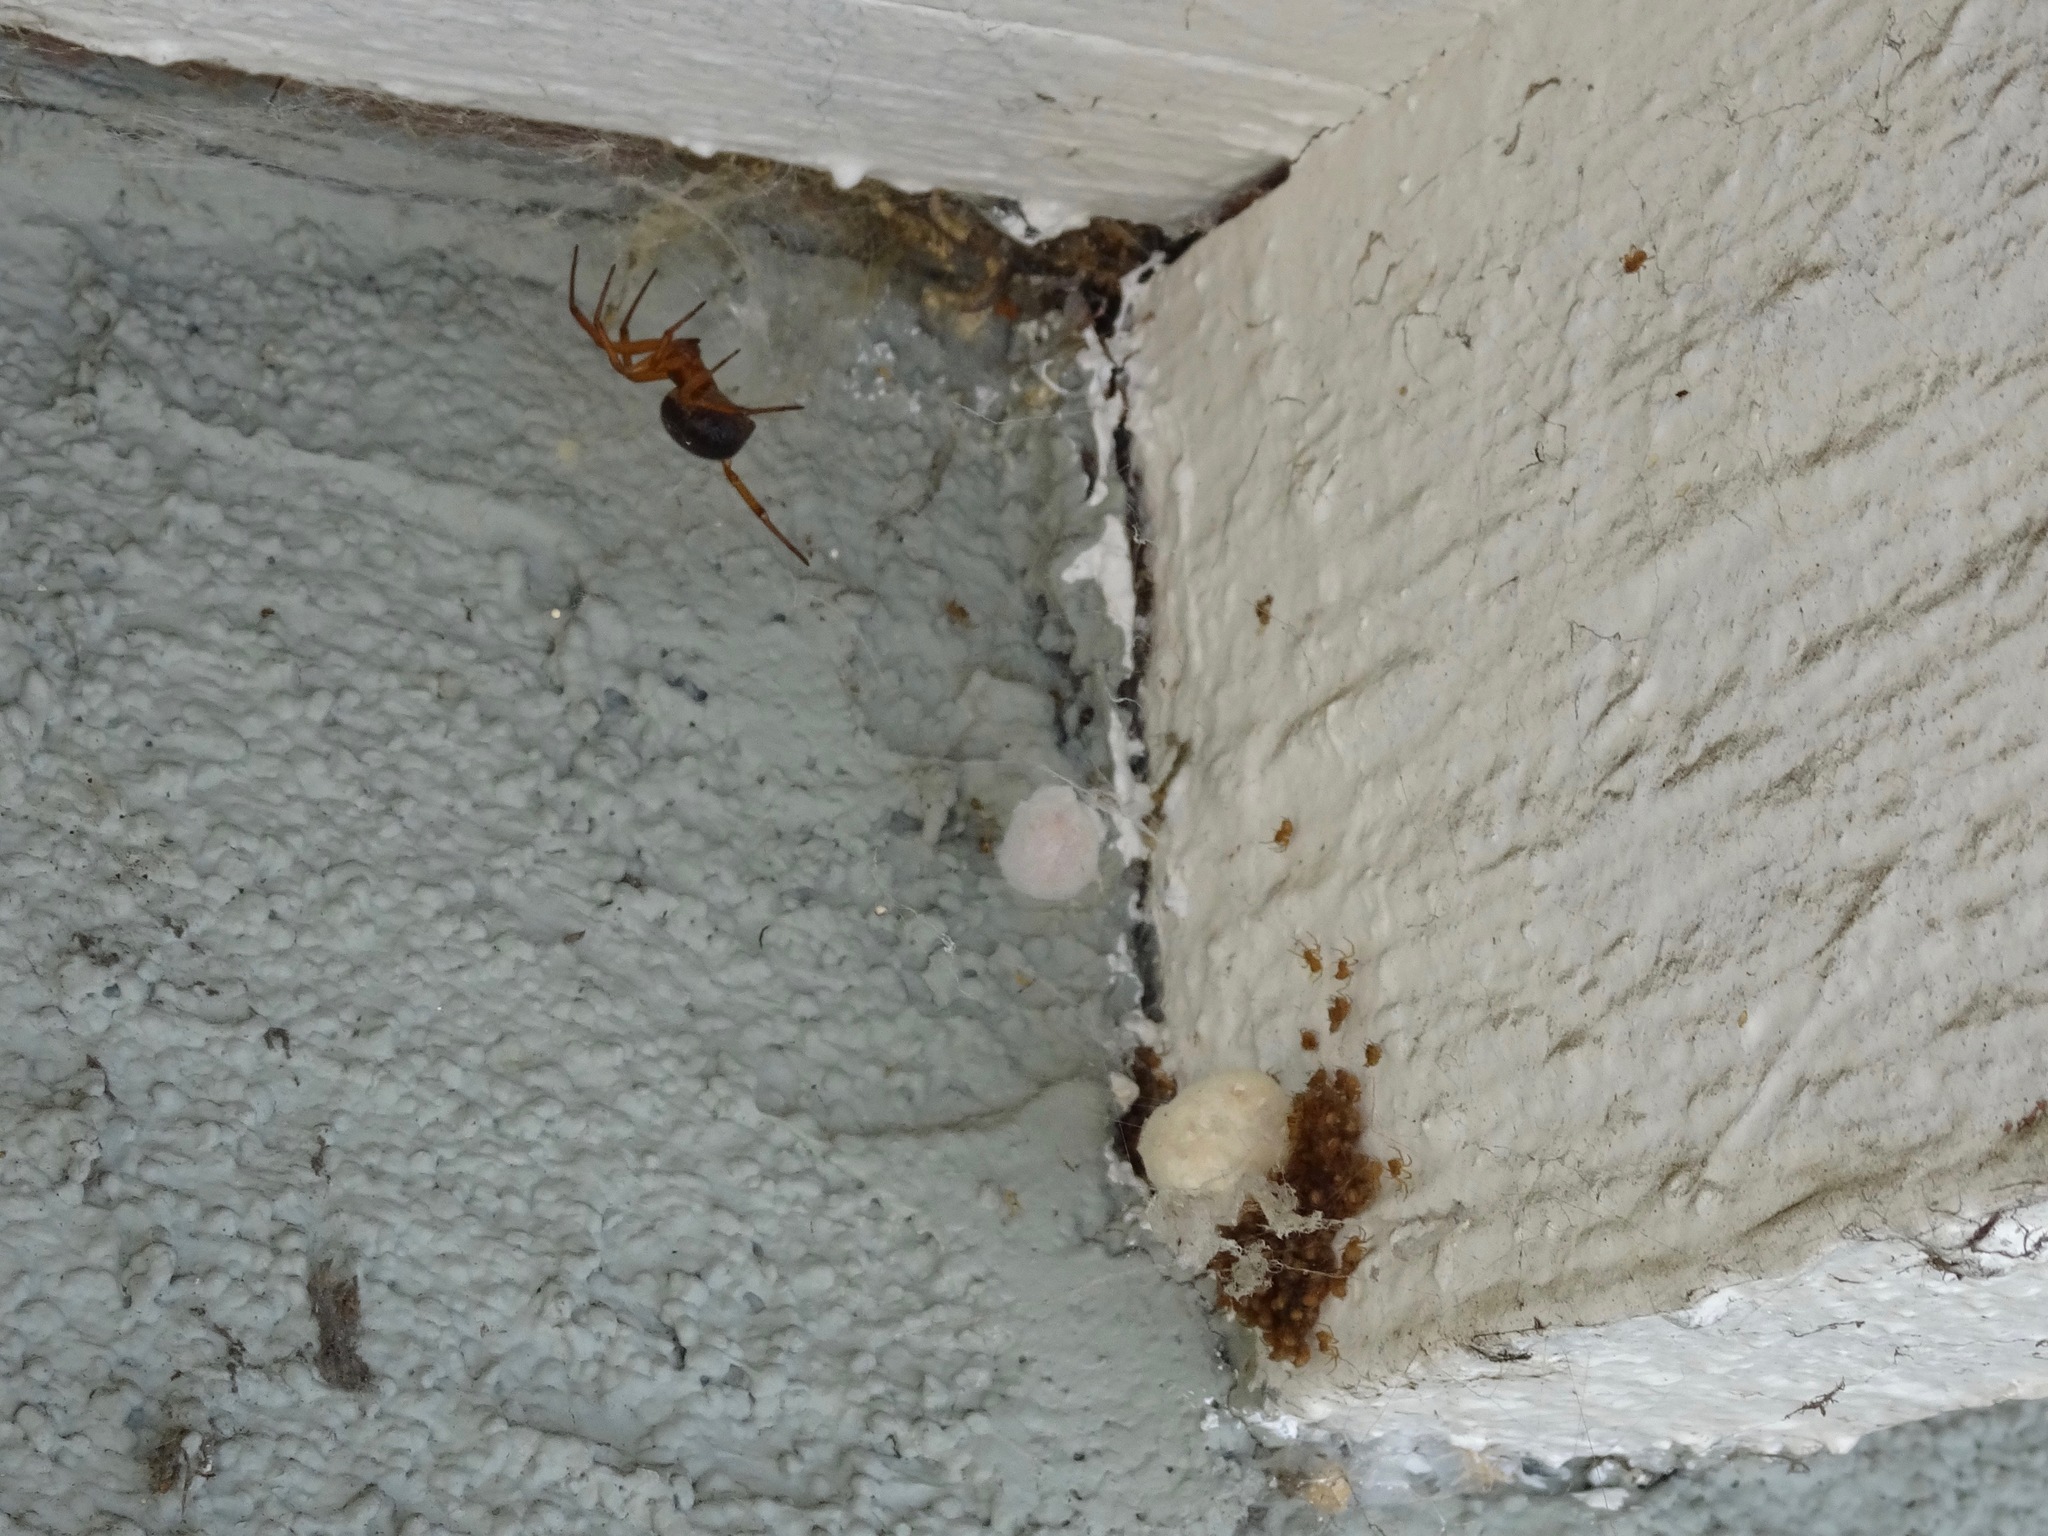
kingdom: Animalia
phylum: Arthropoda
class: Arachnida
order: Araneae
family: Theridiidae
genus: Steatoda
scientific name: Steatoda nobilis
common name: Cobweb weaver
